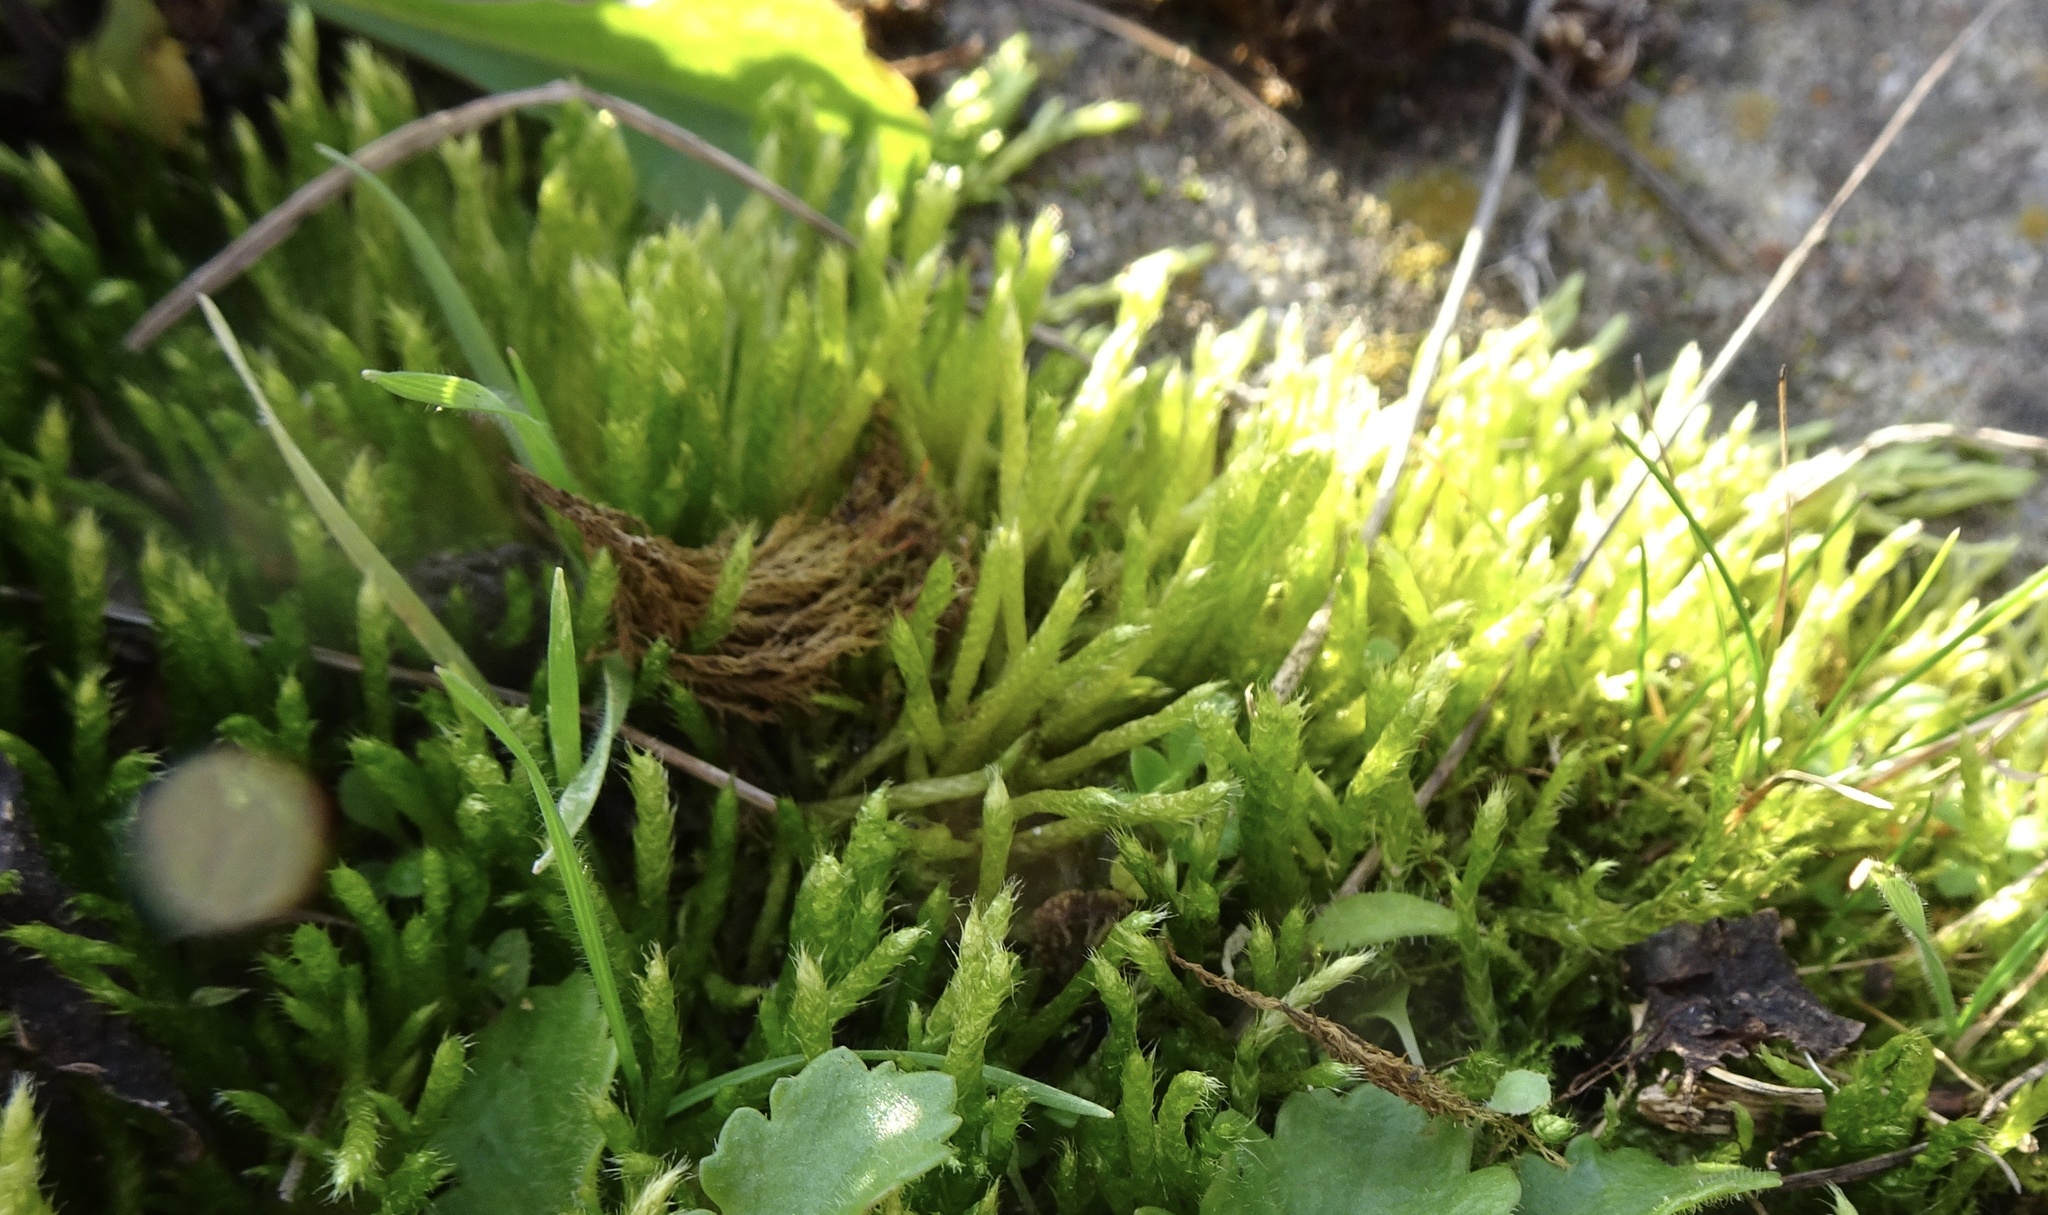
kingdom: Plantae
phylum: Bryophyta
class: Bryopsida
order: Hypnales
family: Brachytheciaceae
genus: Brachythecium
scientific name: Brachythecium albicans
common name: Whitish ragged moss
